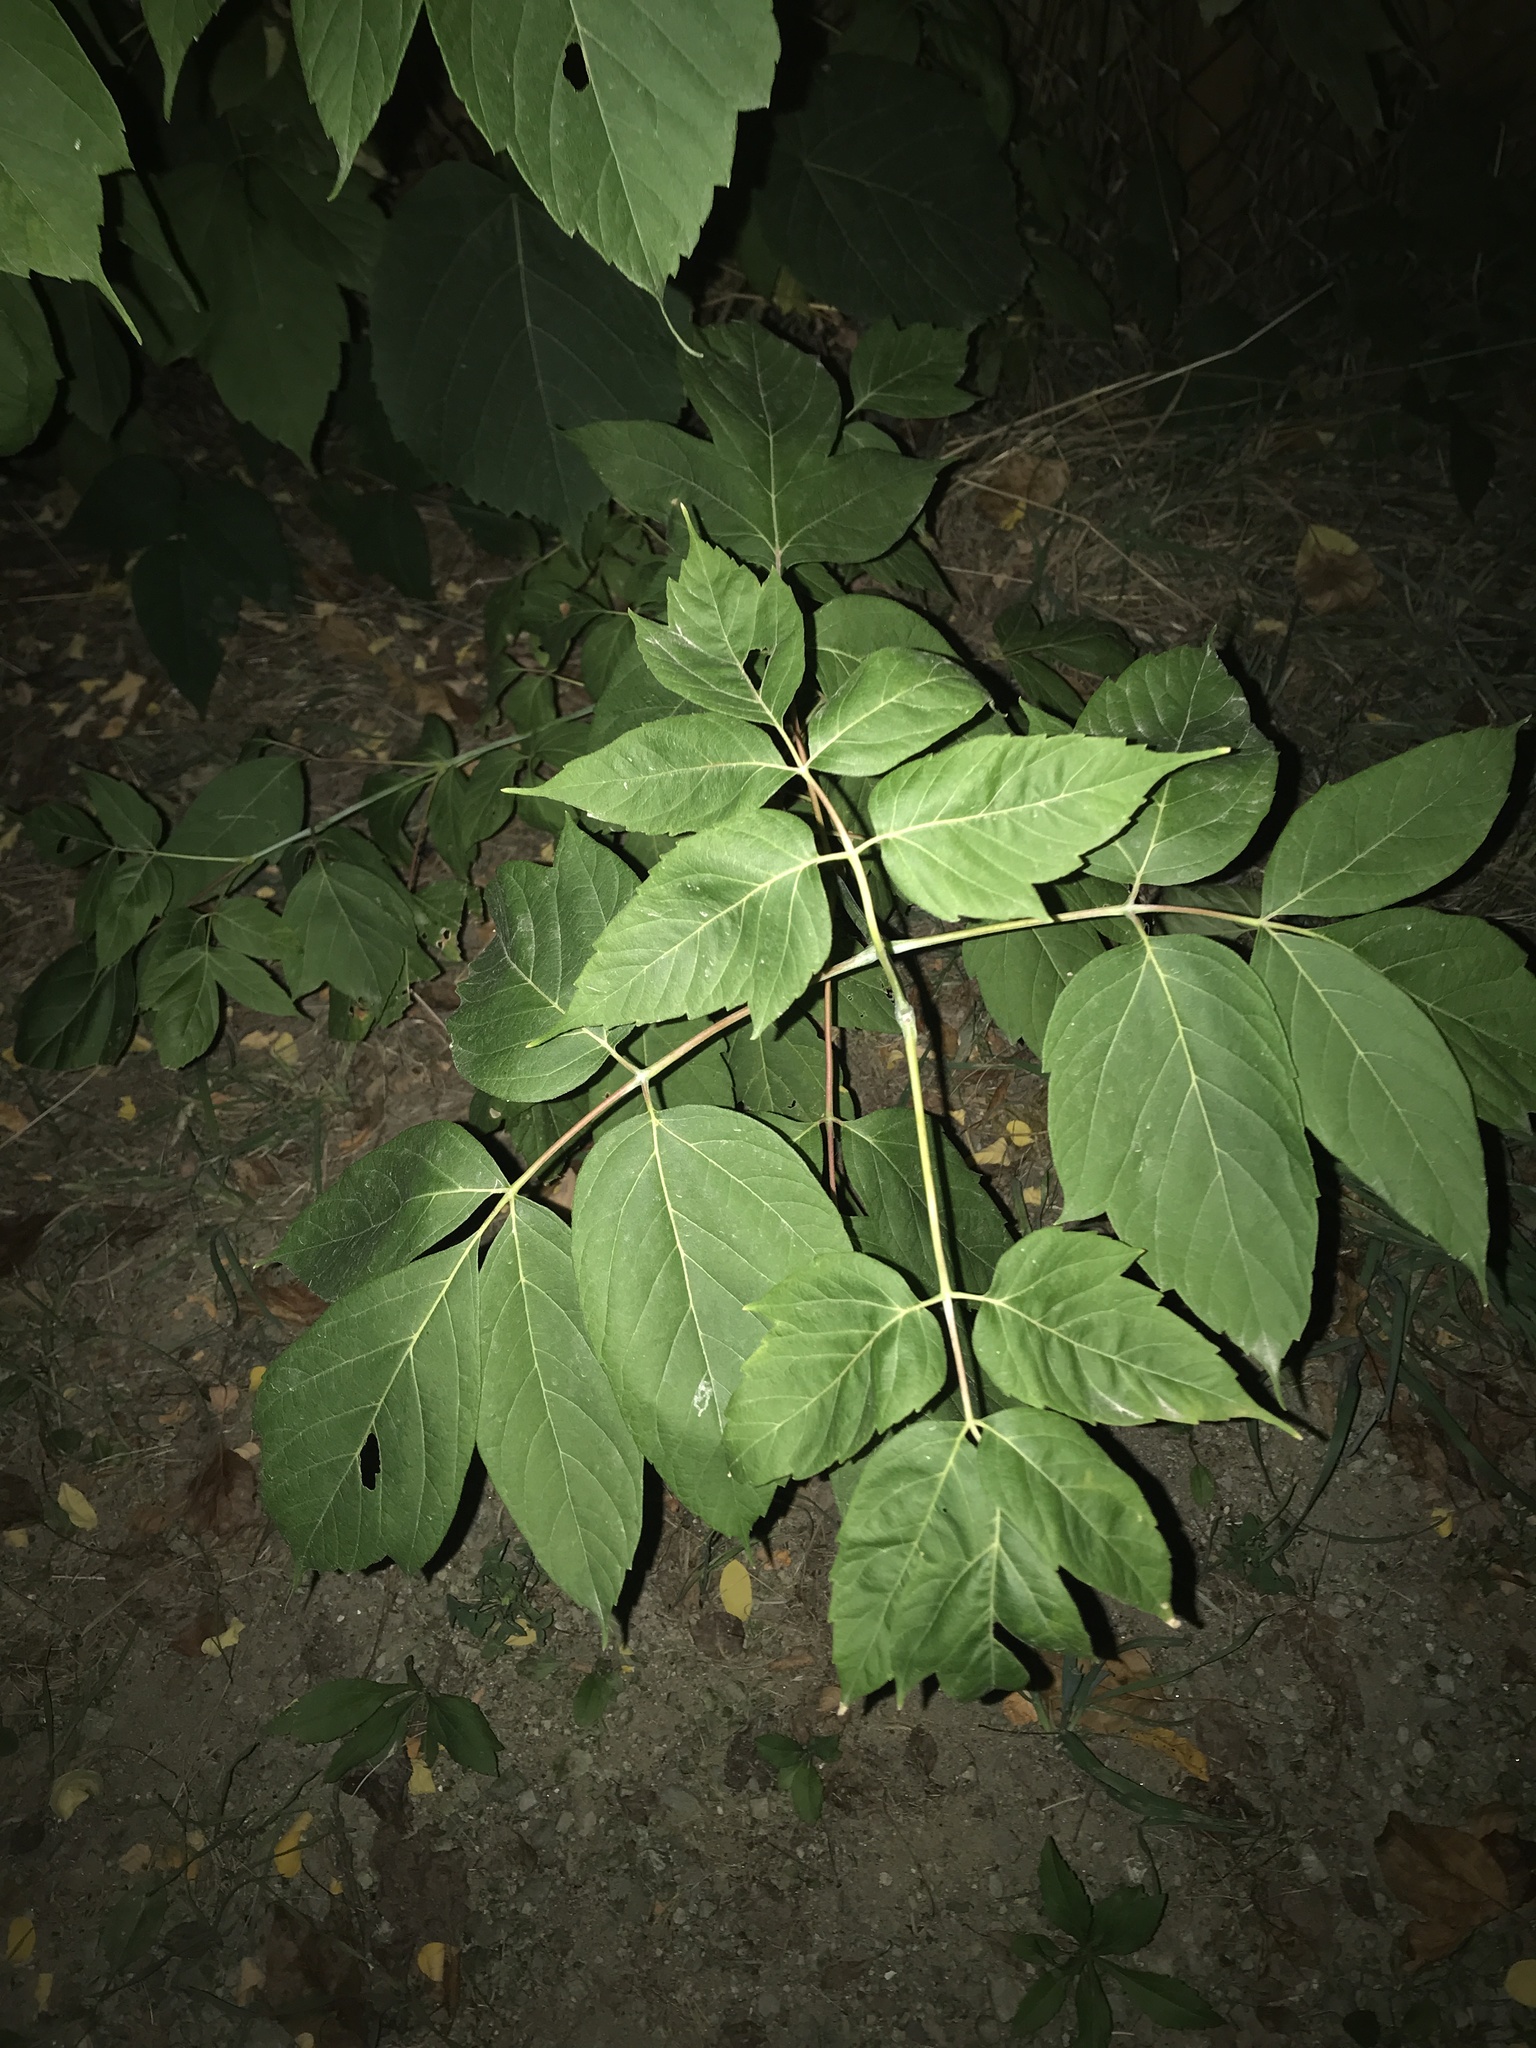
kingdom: Plantae
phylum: Tracheophyta
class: Magnoliopsida
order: Sapindales
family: Sapindaceae
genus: Acer
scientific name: Acer negundo
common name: Ashleaf maple
